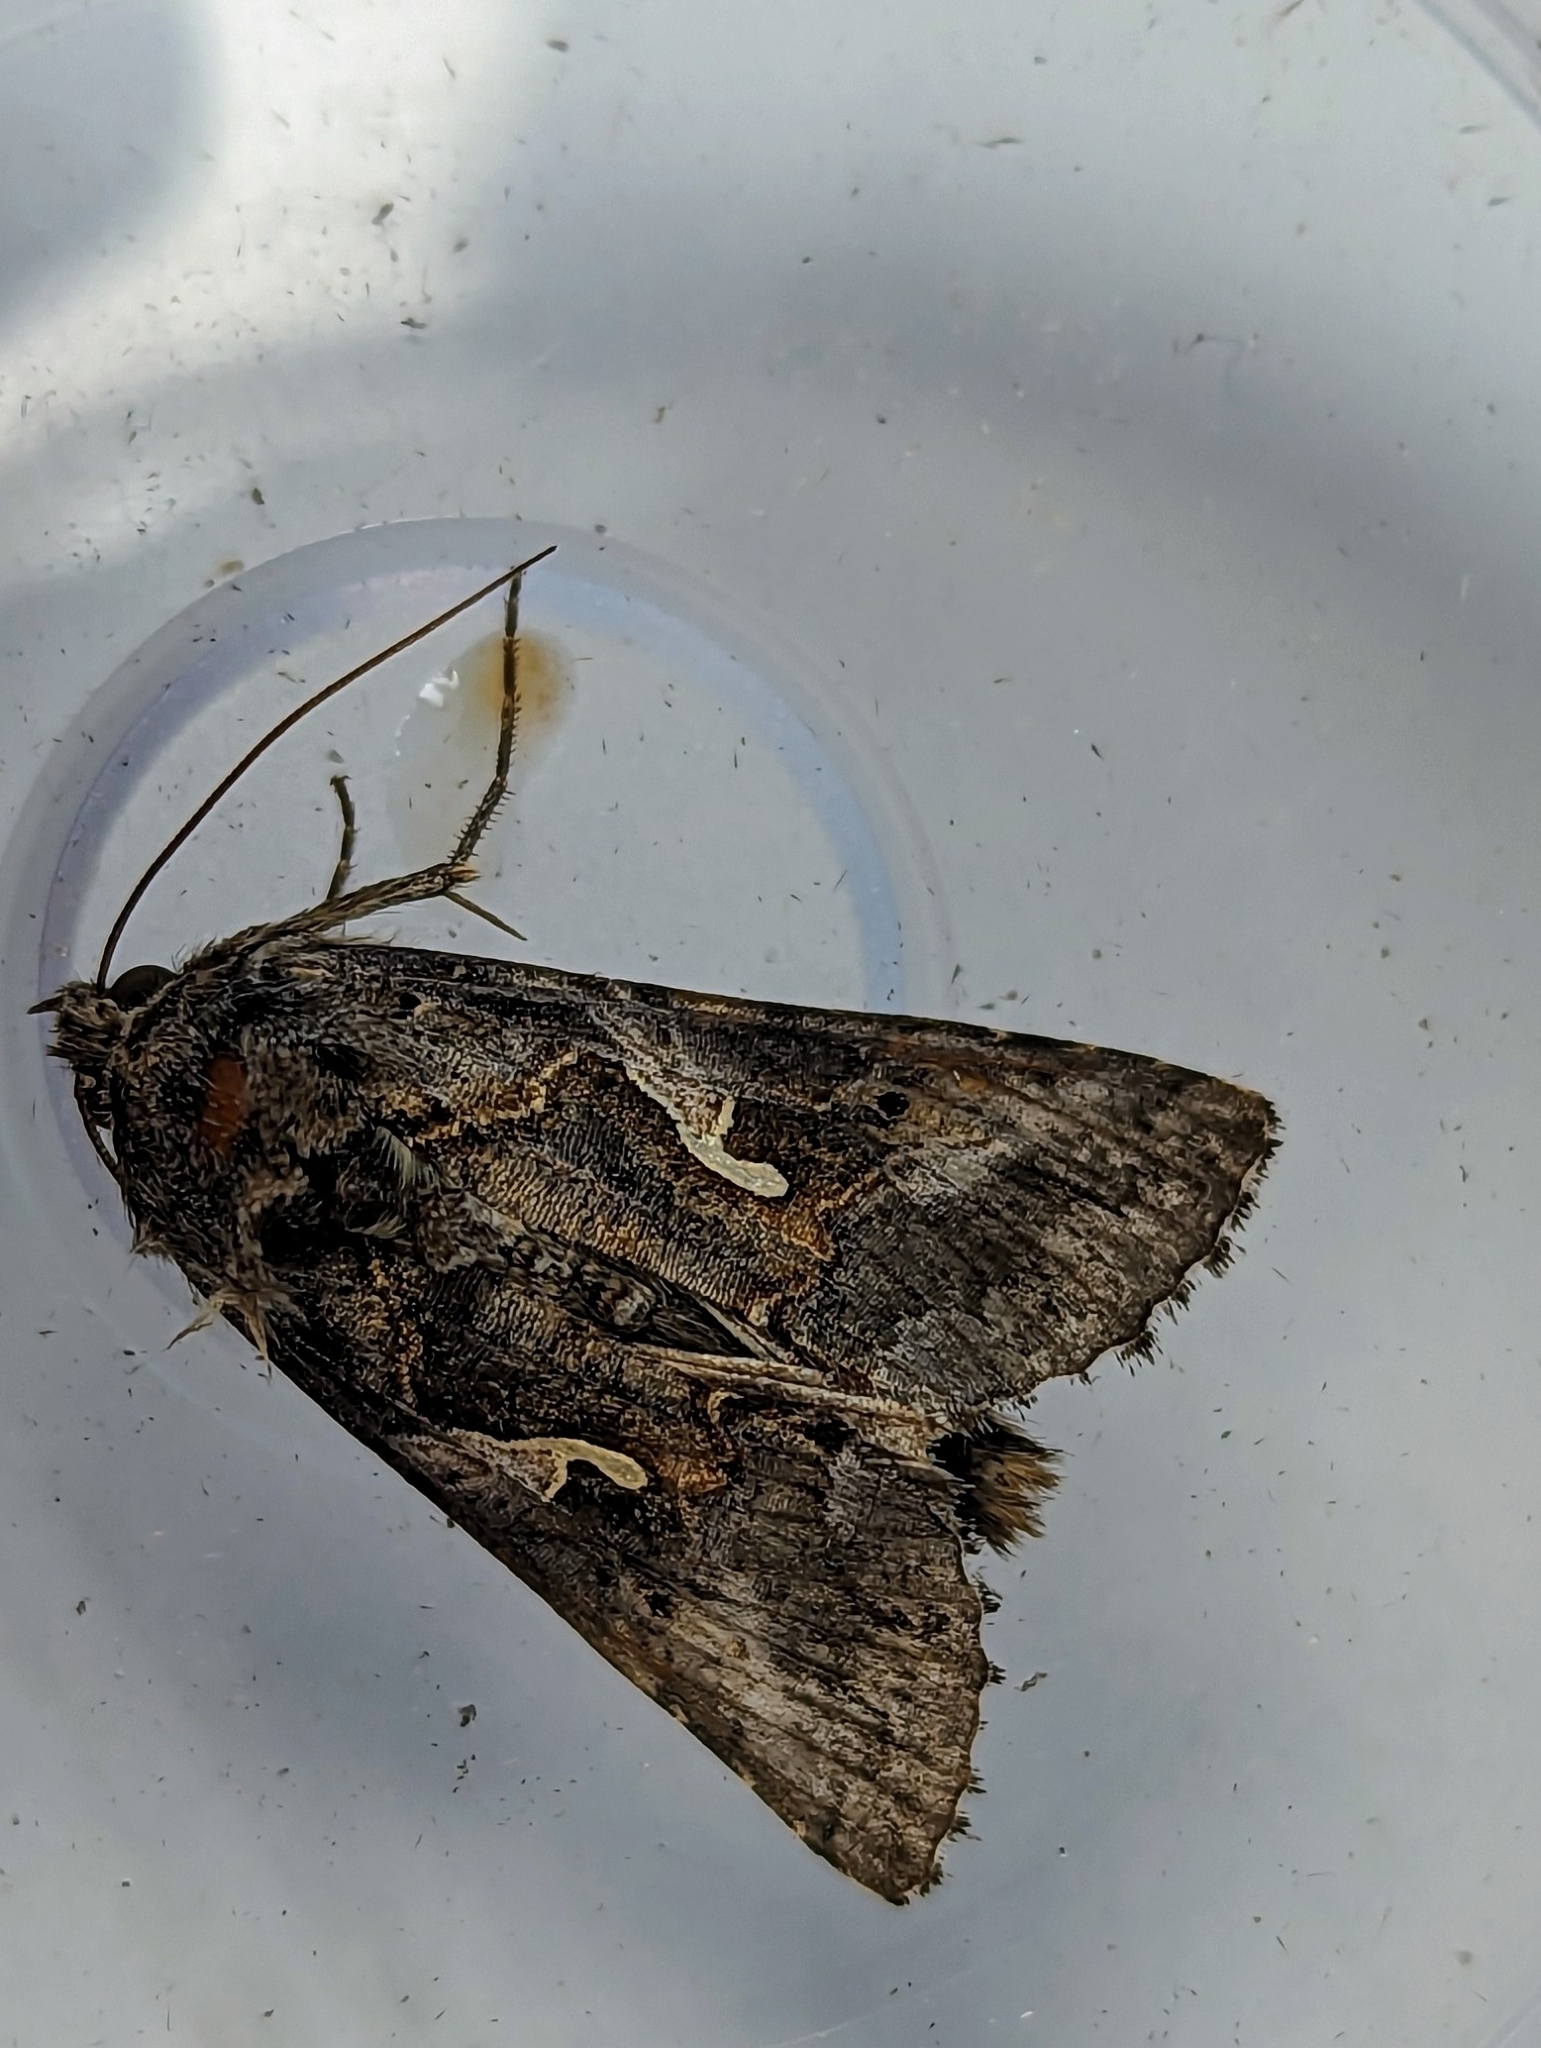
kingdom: Animalia
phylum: Arthropoda
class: Insecta
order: Lepidoptera
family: Noctuidae
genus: Autographa
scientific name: Autographa gamma
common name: Silver y
